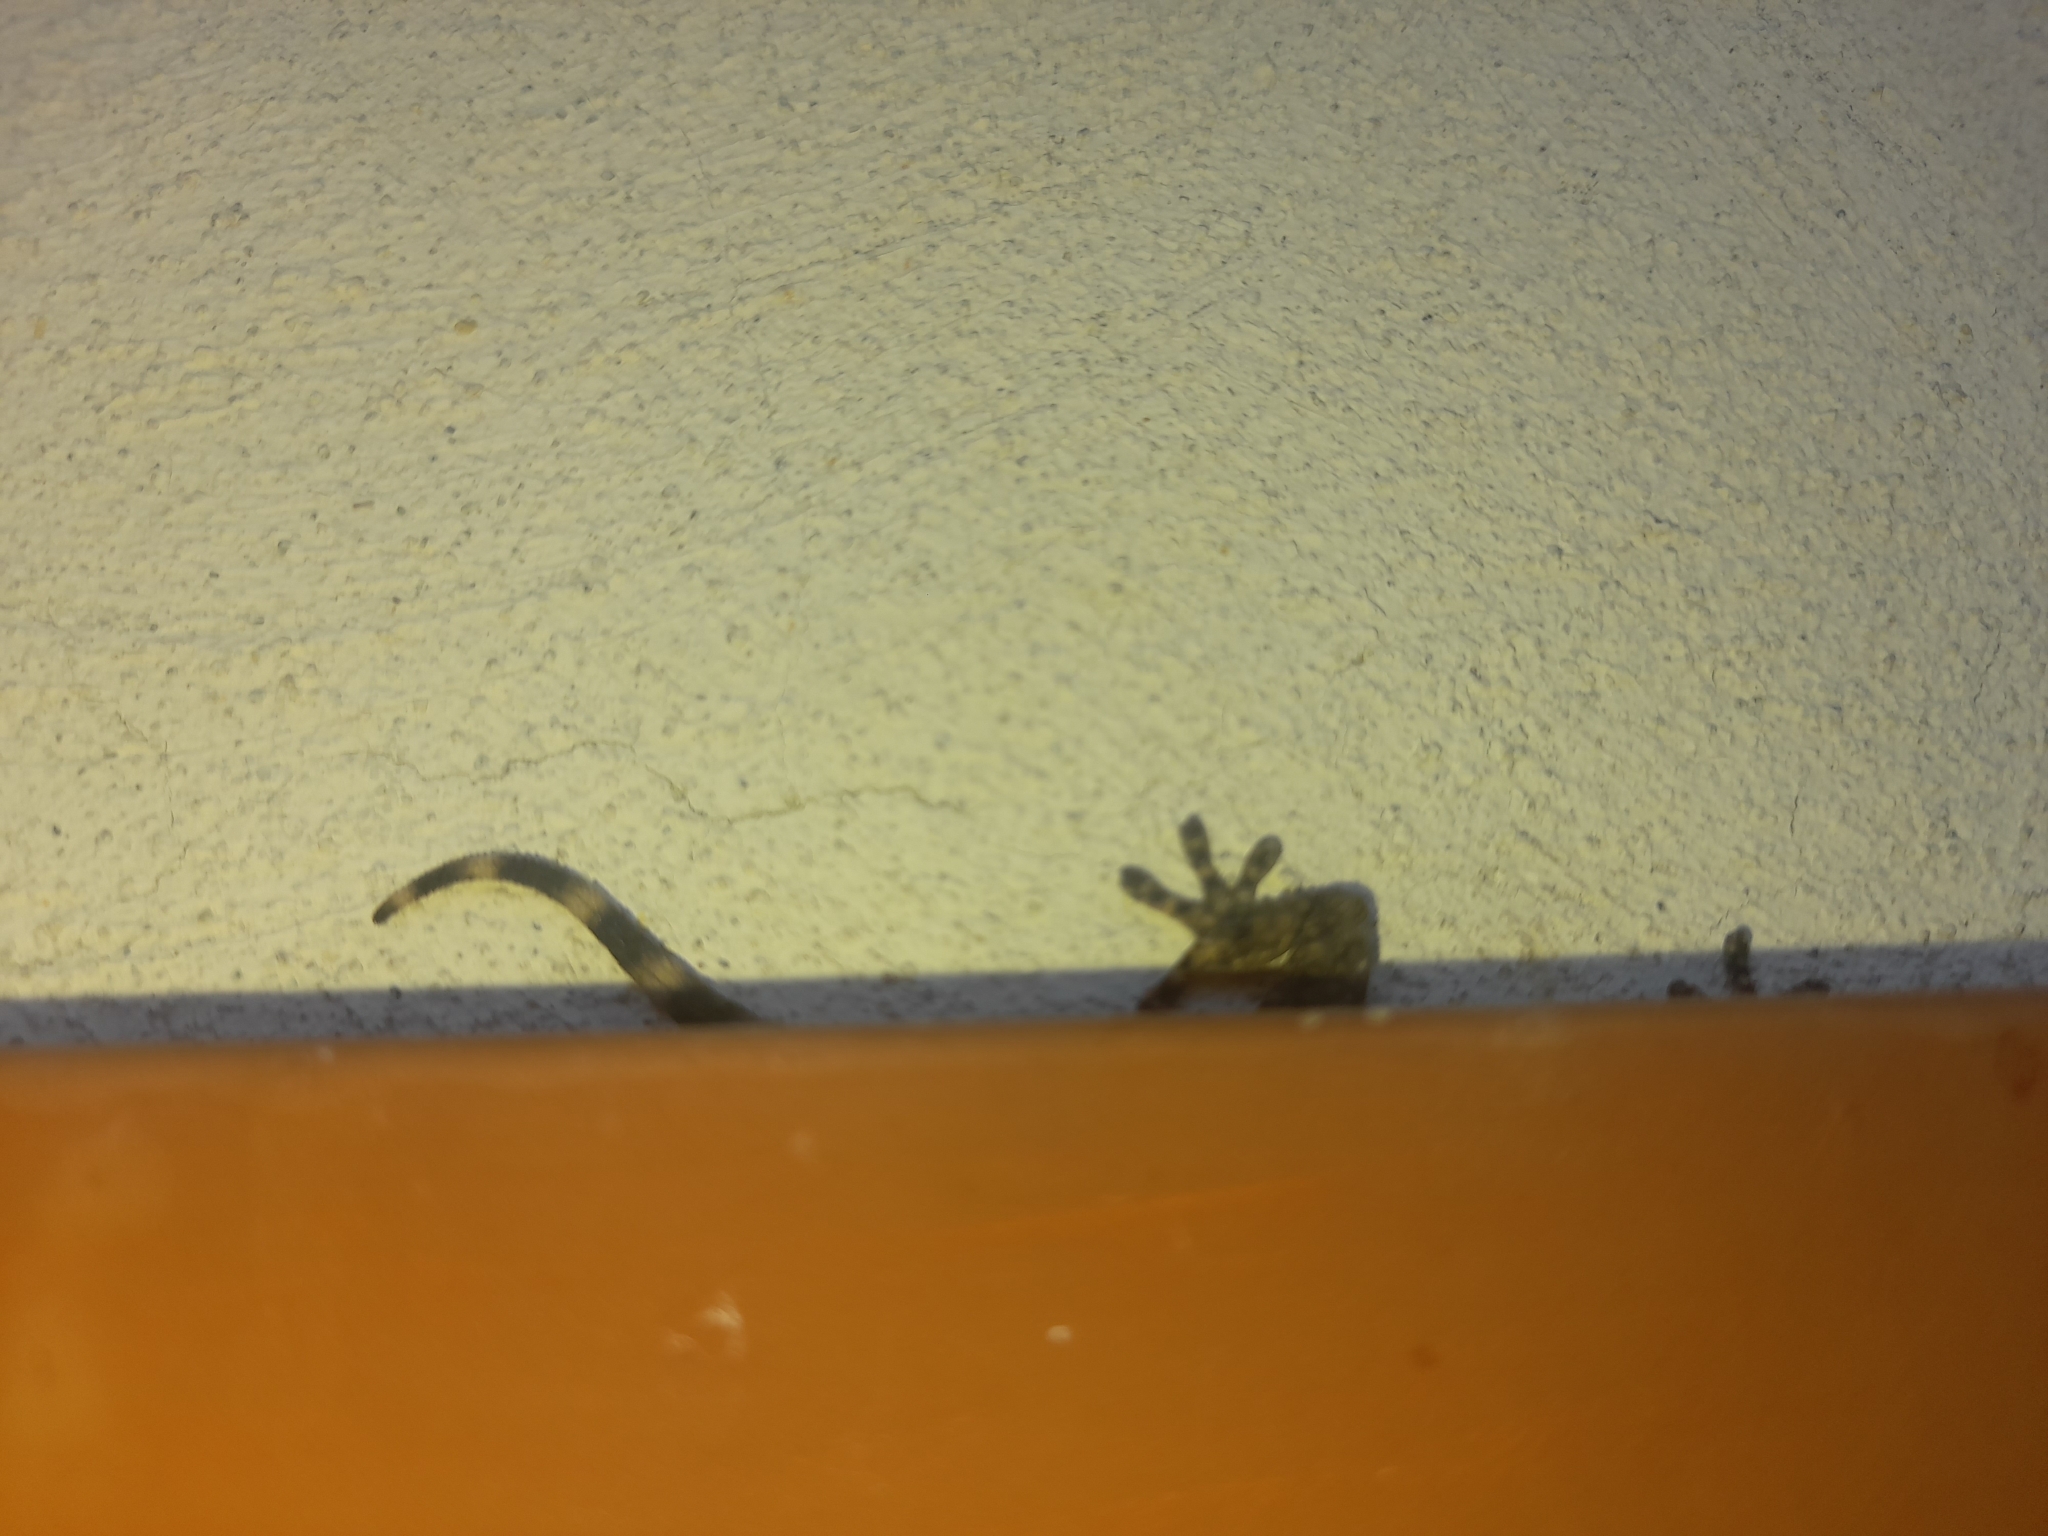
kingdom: Animalia
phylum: Chordata
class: Squamata
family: Phyllodactylidae
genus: Tarentola
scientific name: Tarentola mauritanica
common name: Moorish gecko
